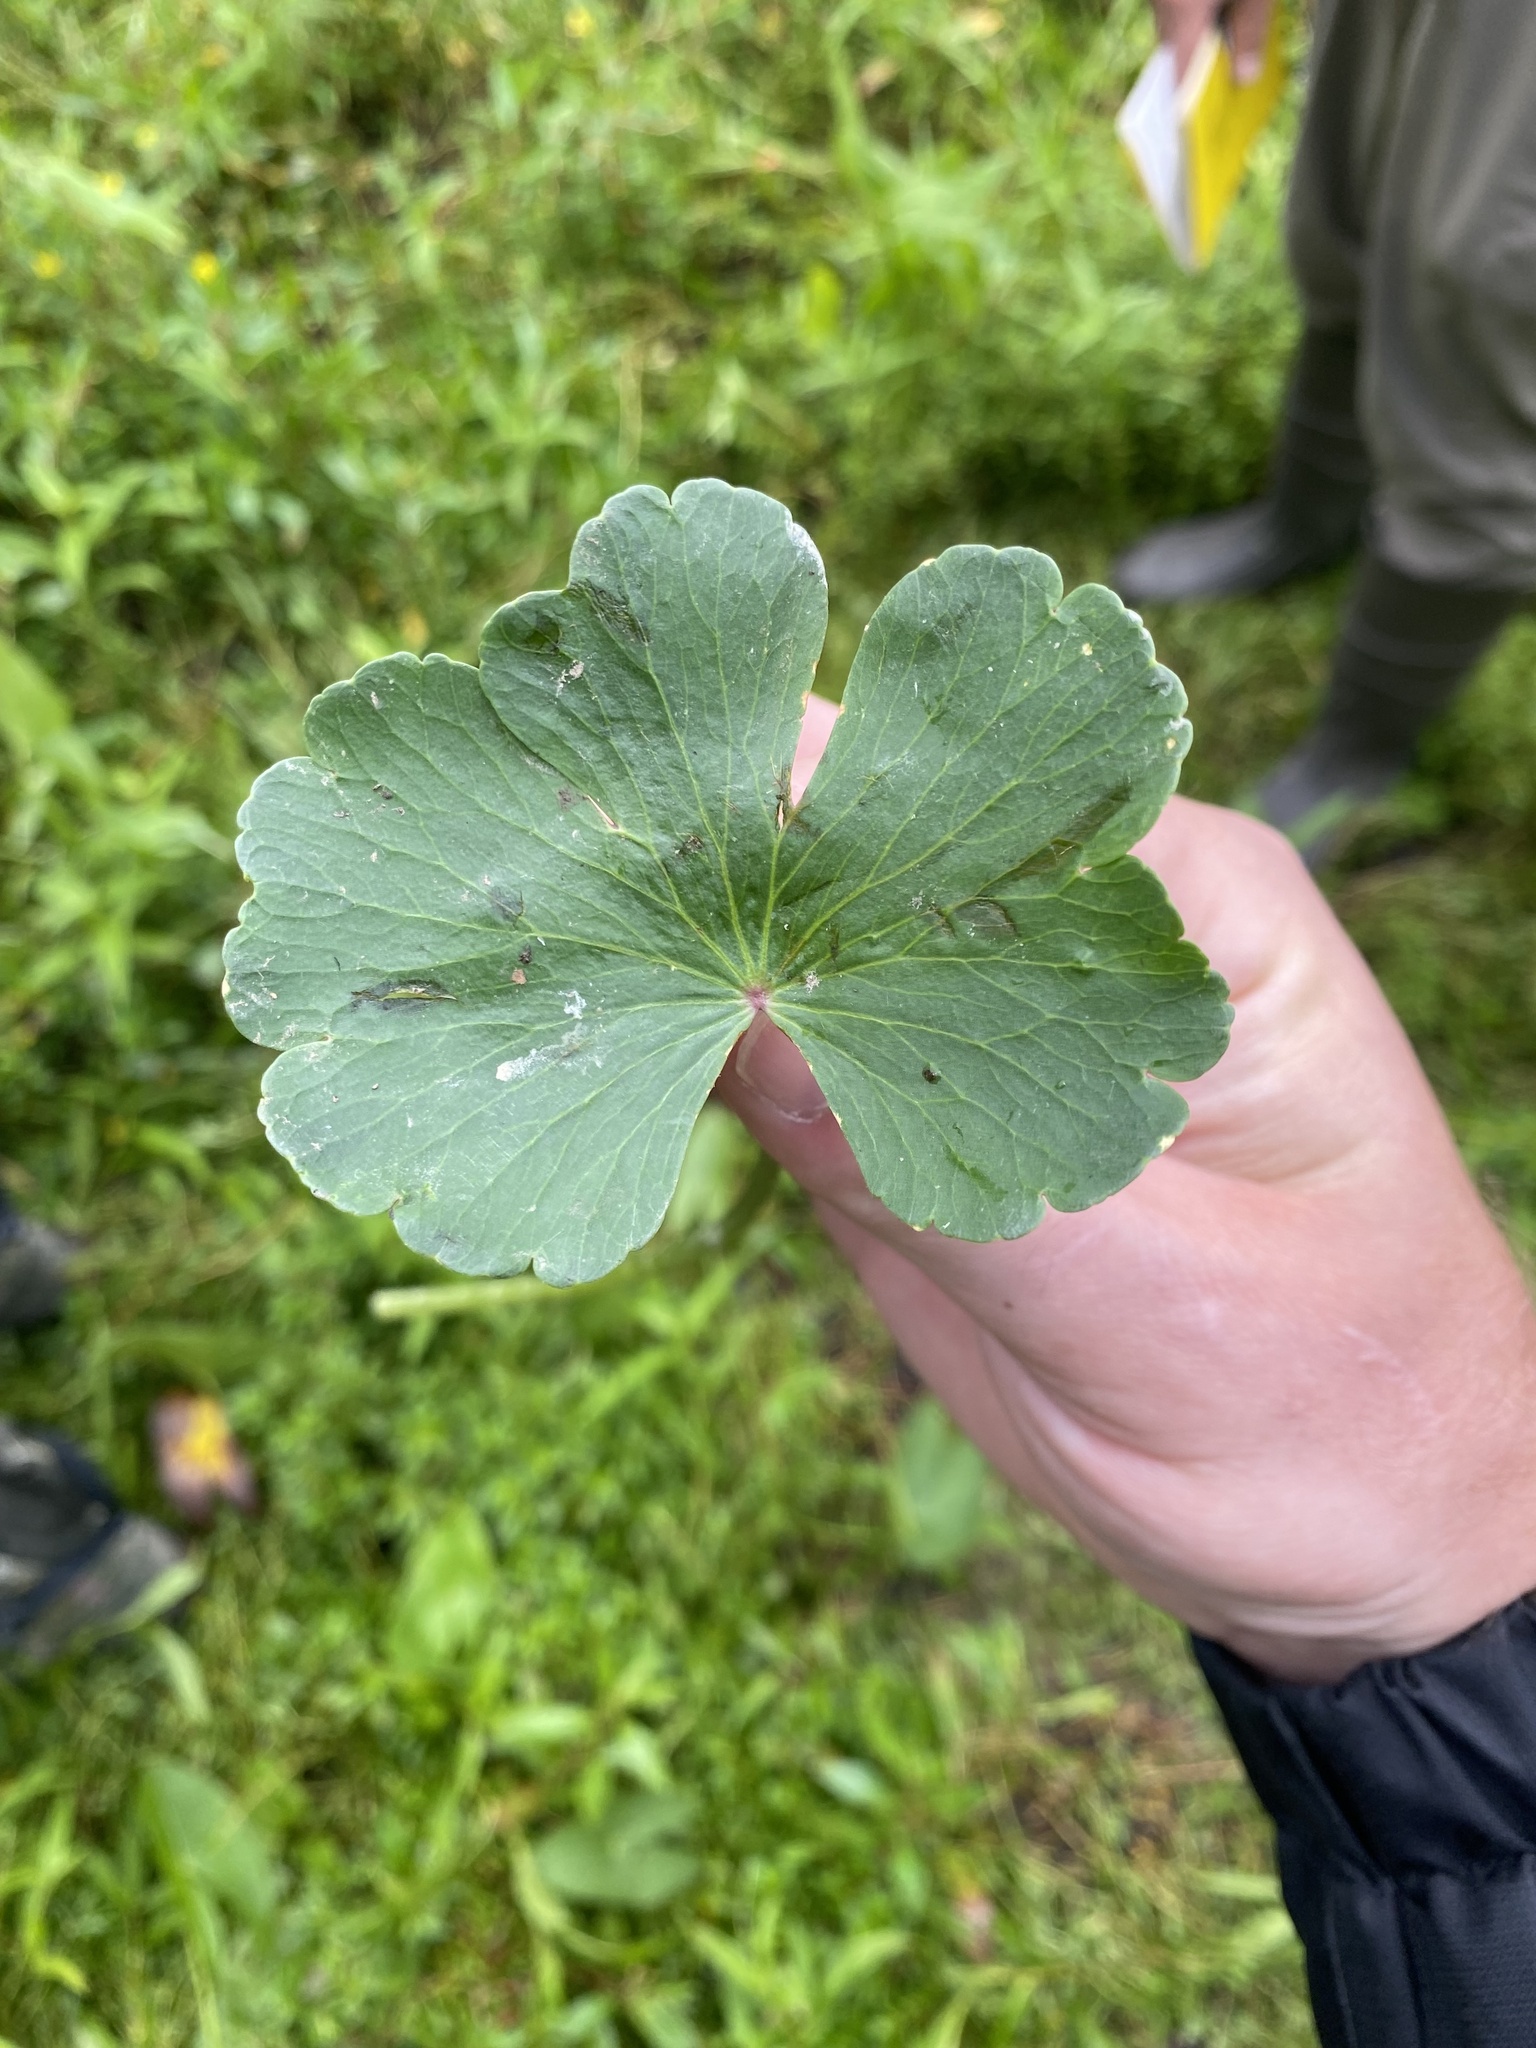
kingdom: Plantae
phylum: Tracheophyta
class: Magnoliopsida
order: Apiales
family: Araliaceae
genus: Hydrocotyle
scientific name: Hydrocotyle ranunculoides
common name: Floating pennywort
